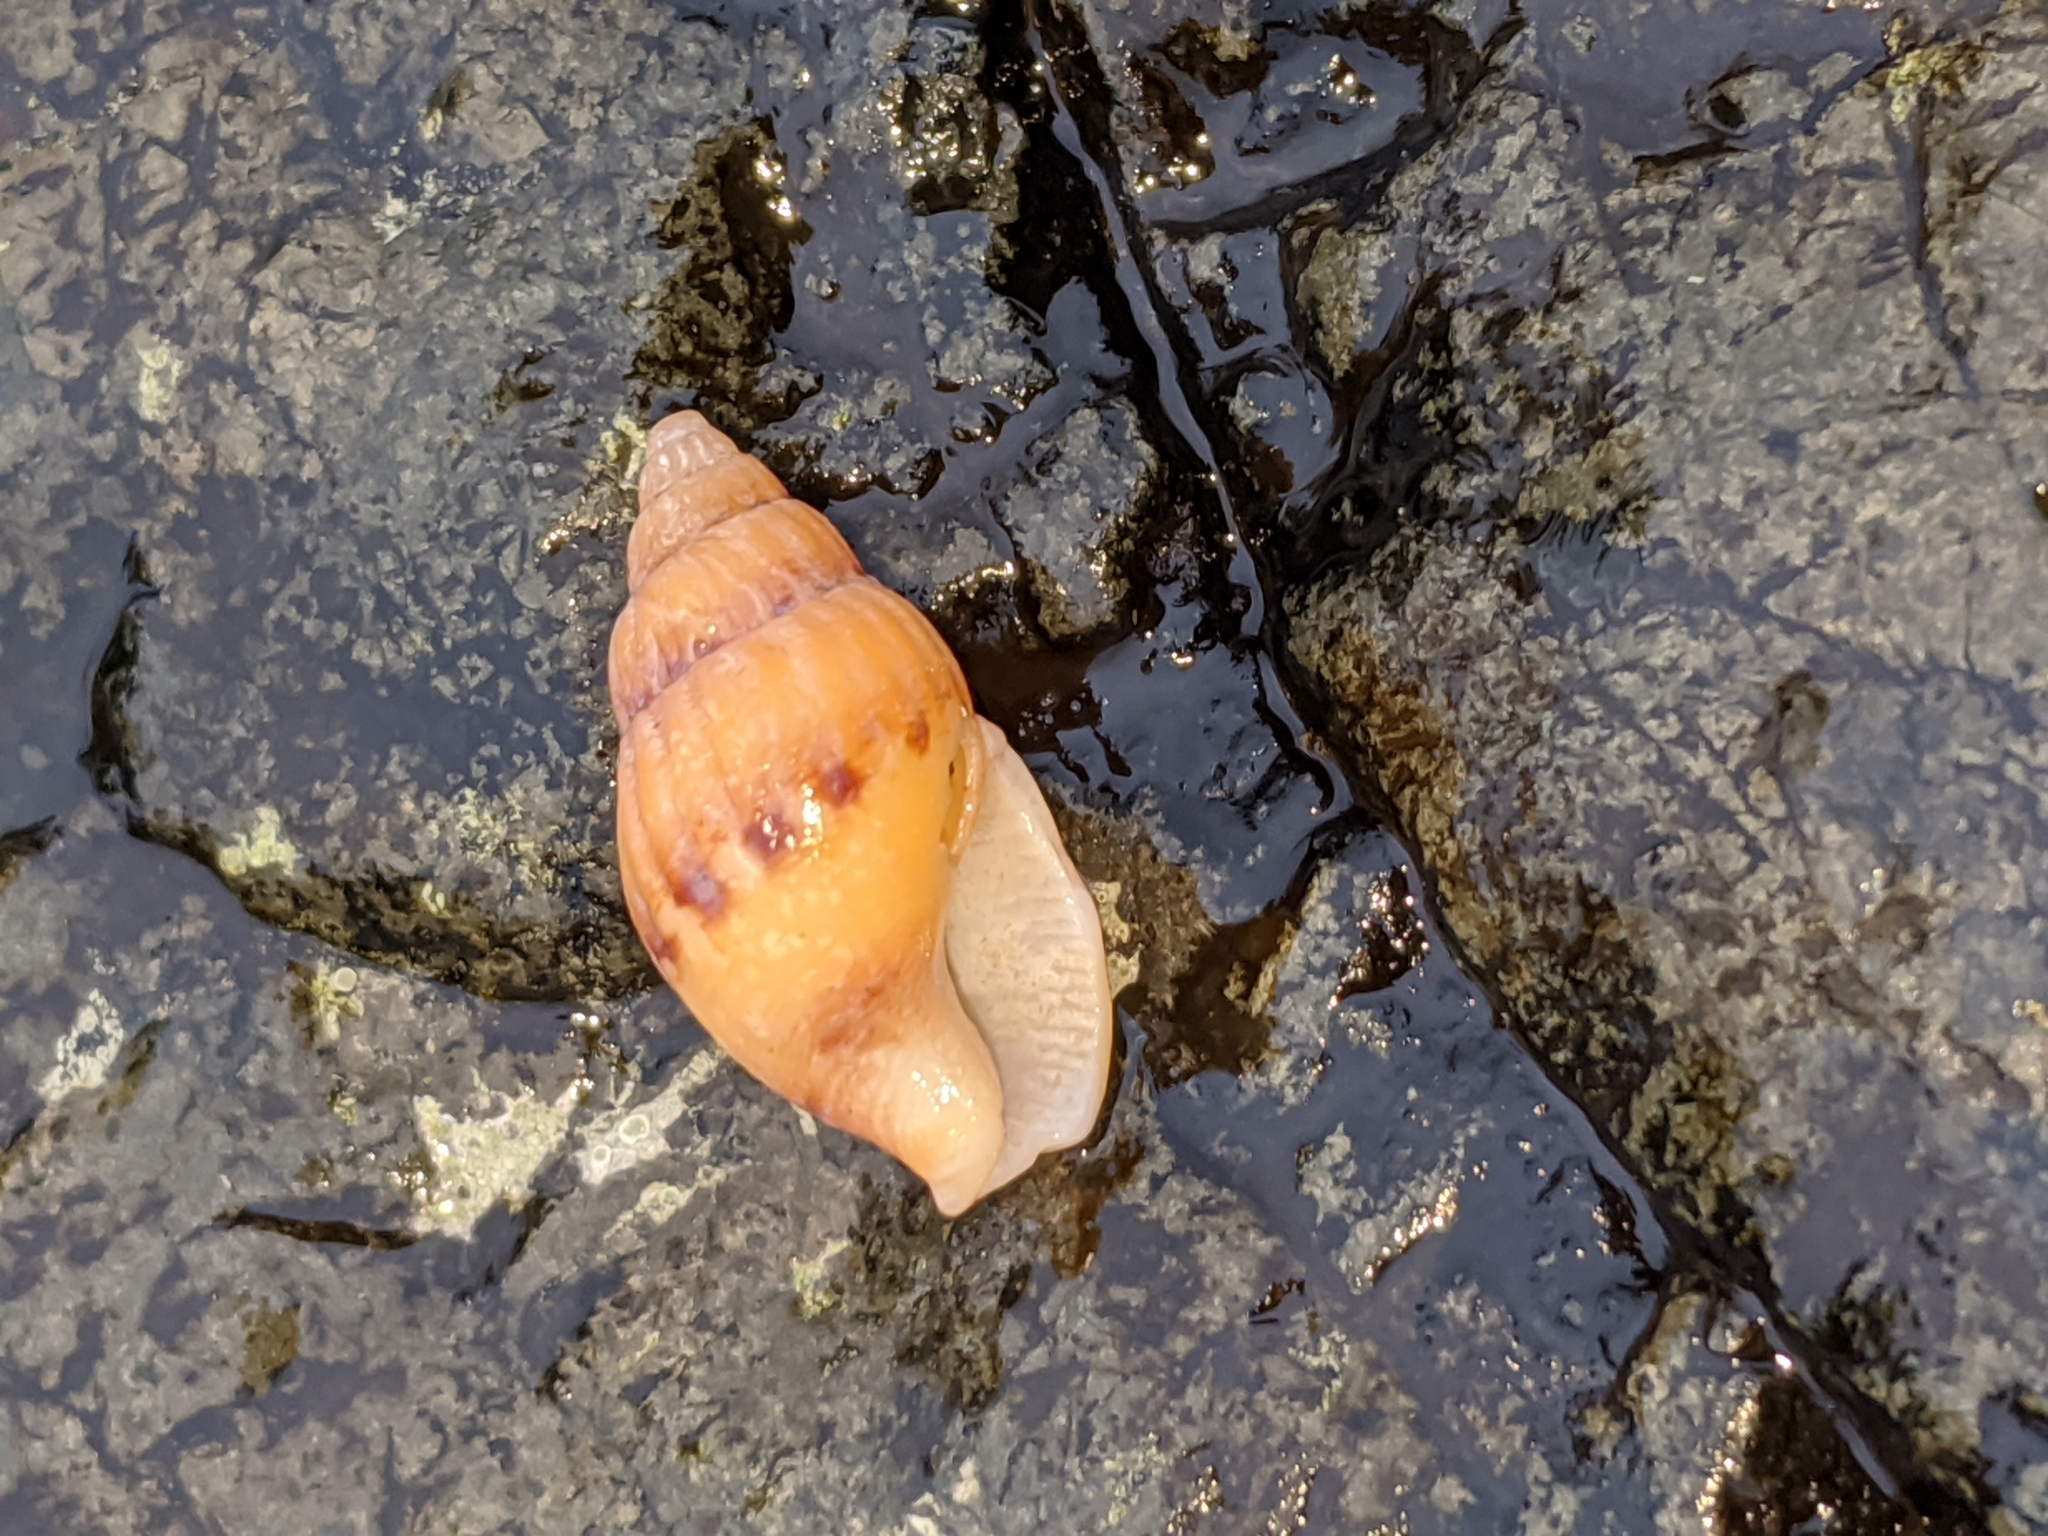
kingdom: Animalia
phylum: Mollusca
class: Gastropoda
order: Neogastropoda
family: Columbellidae
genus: Amphissa
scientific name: Amphissa columbiana
